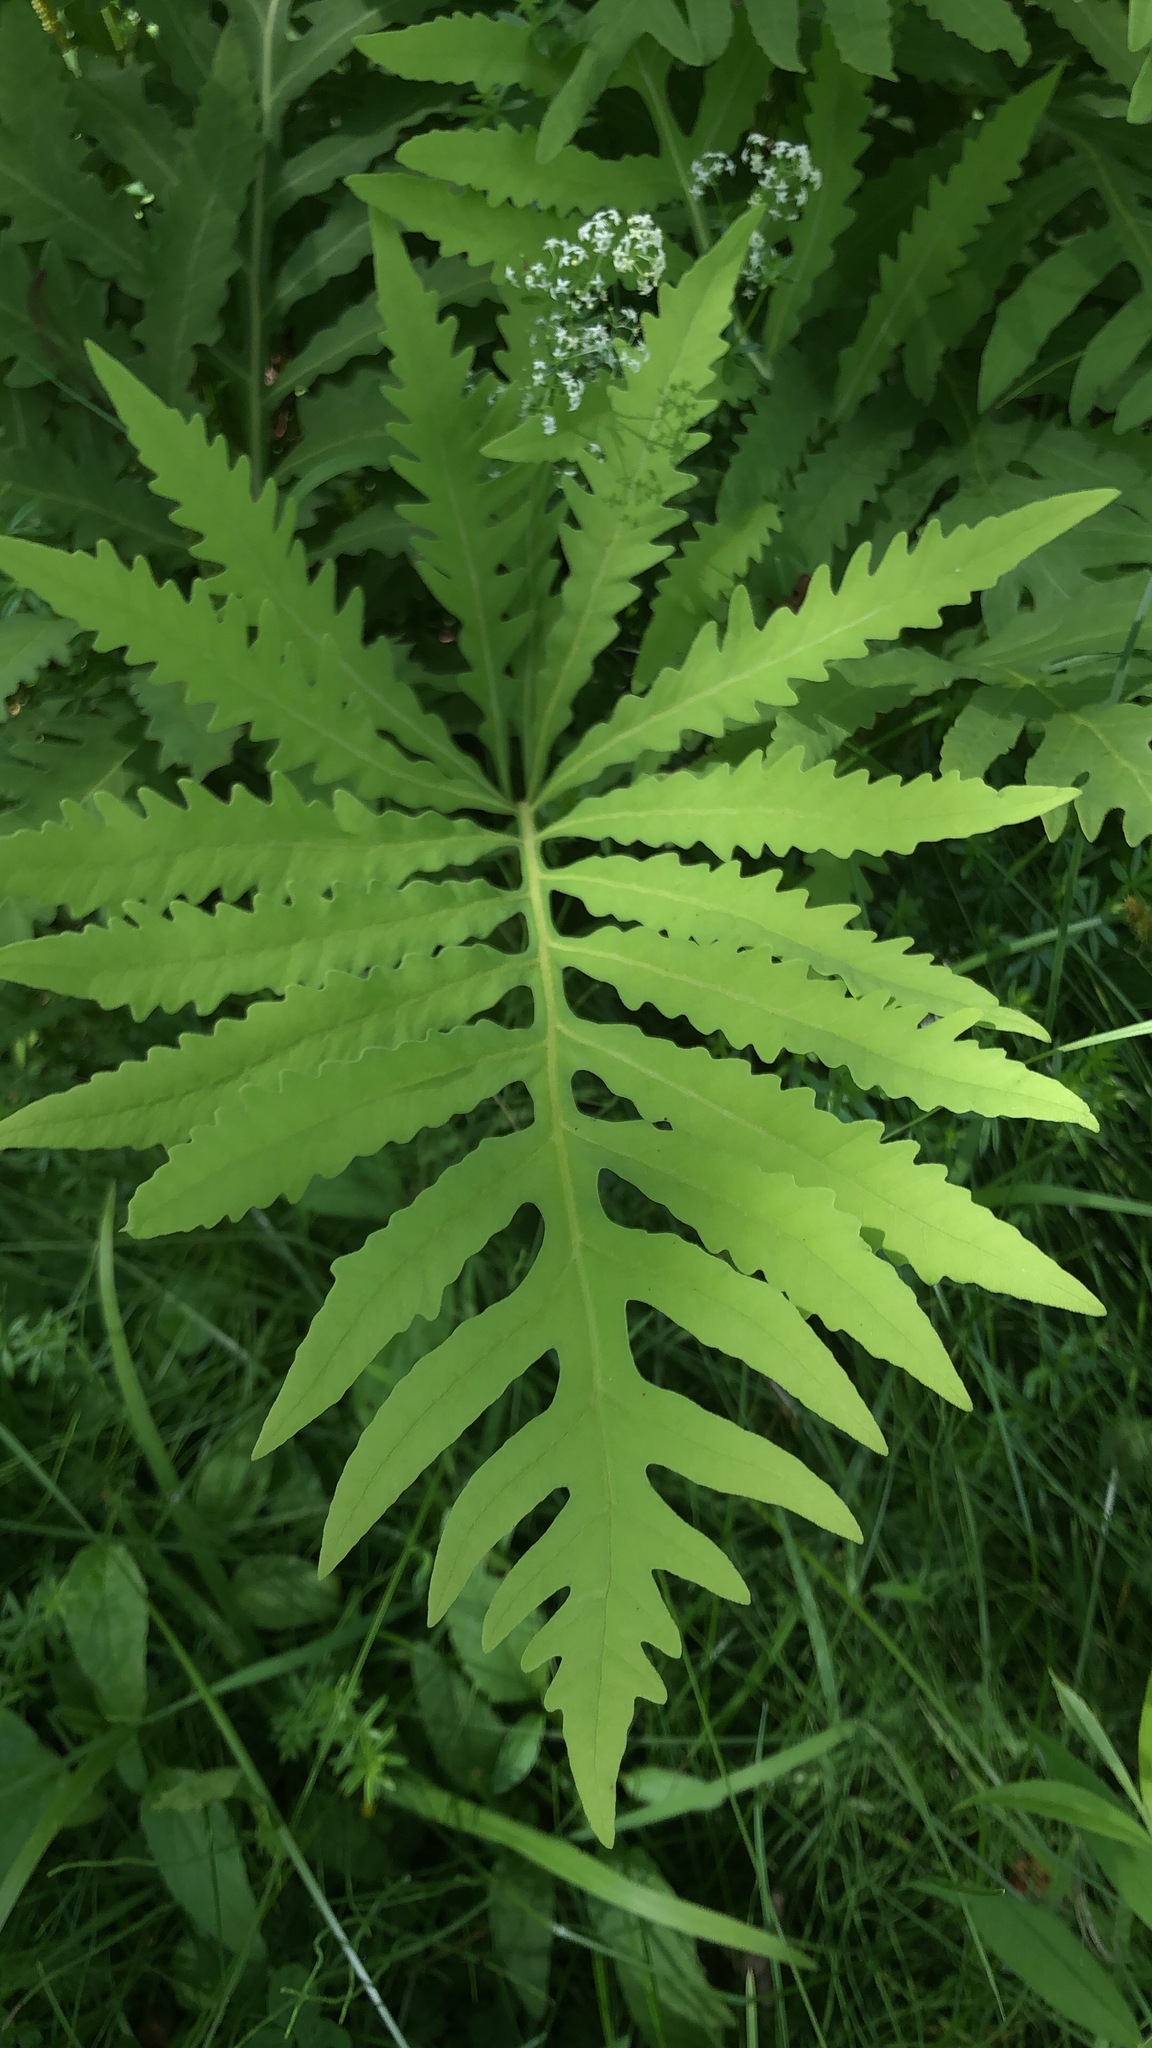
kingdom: Plantae
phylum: Tracheophyta
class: Polypodiopsida
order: Polypodiales
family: Onocleaceae
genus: Onoclea
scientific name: Onoclea sensibilis
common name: Sensitive fern
